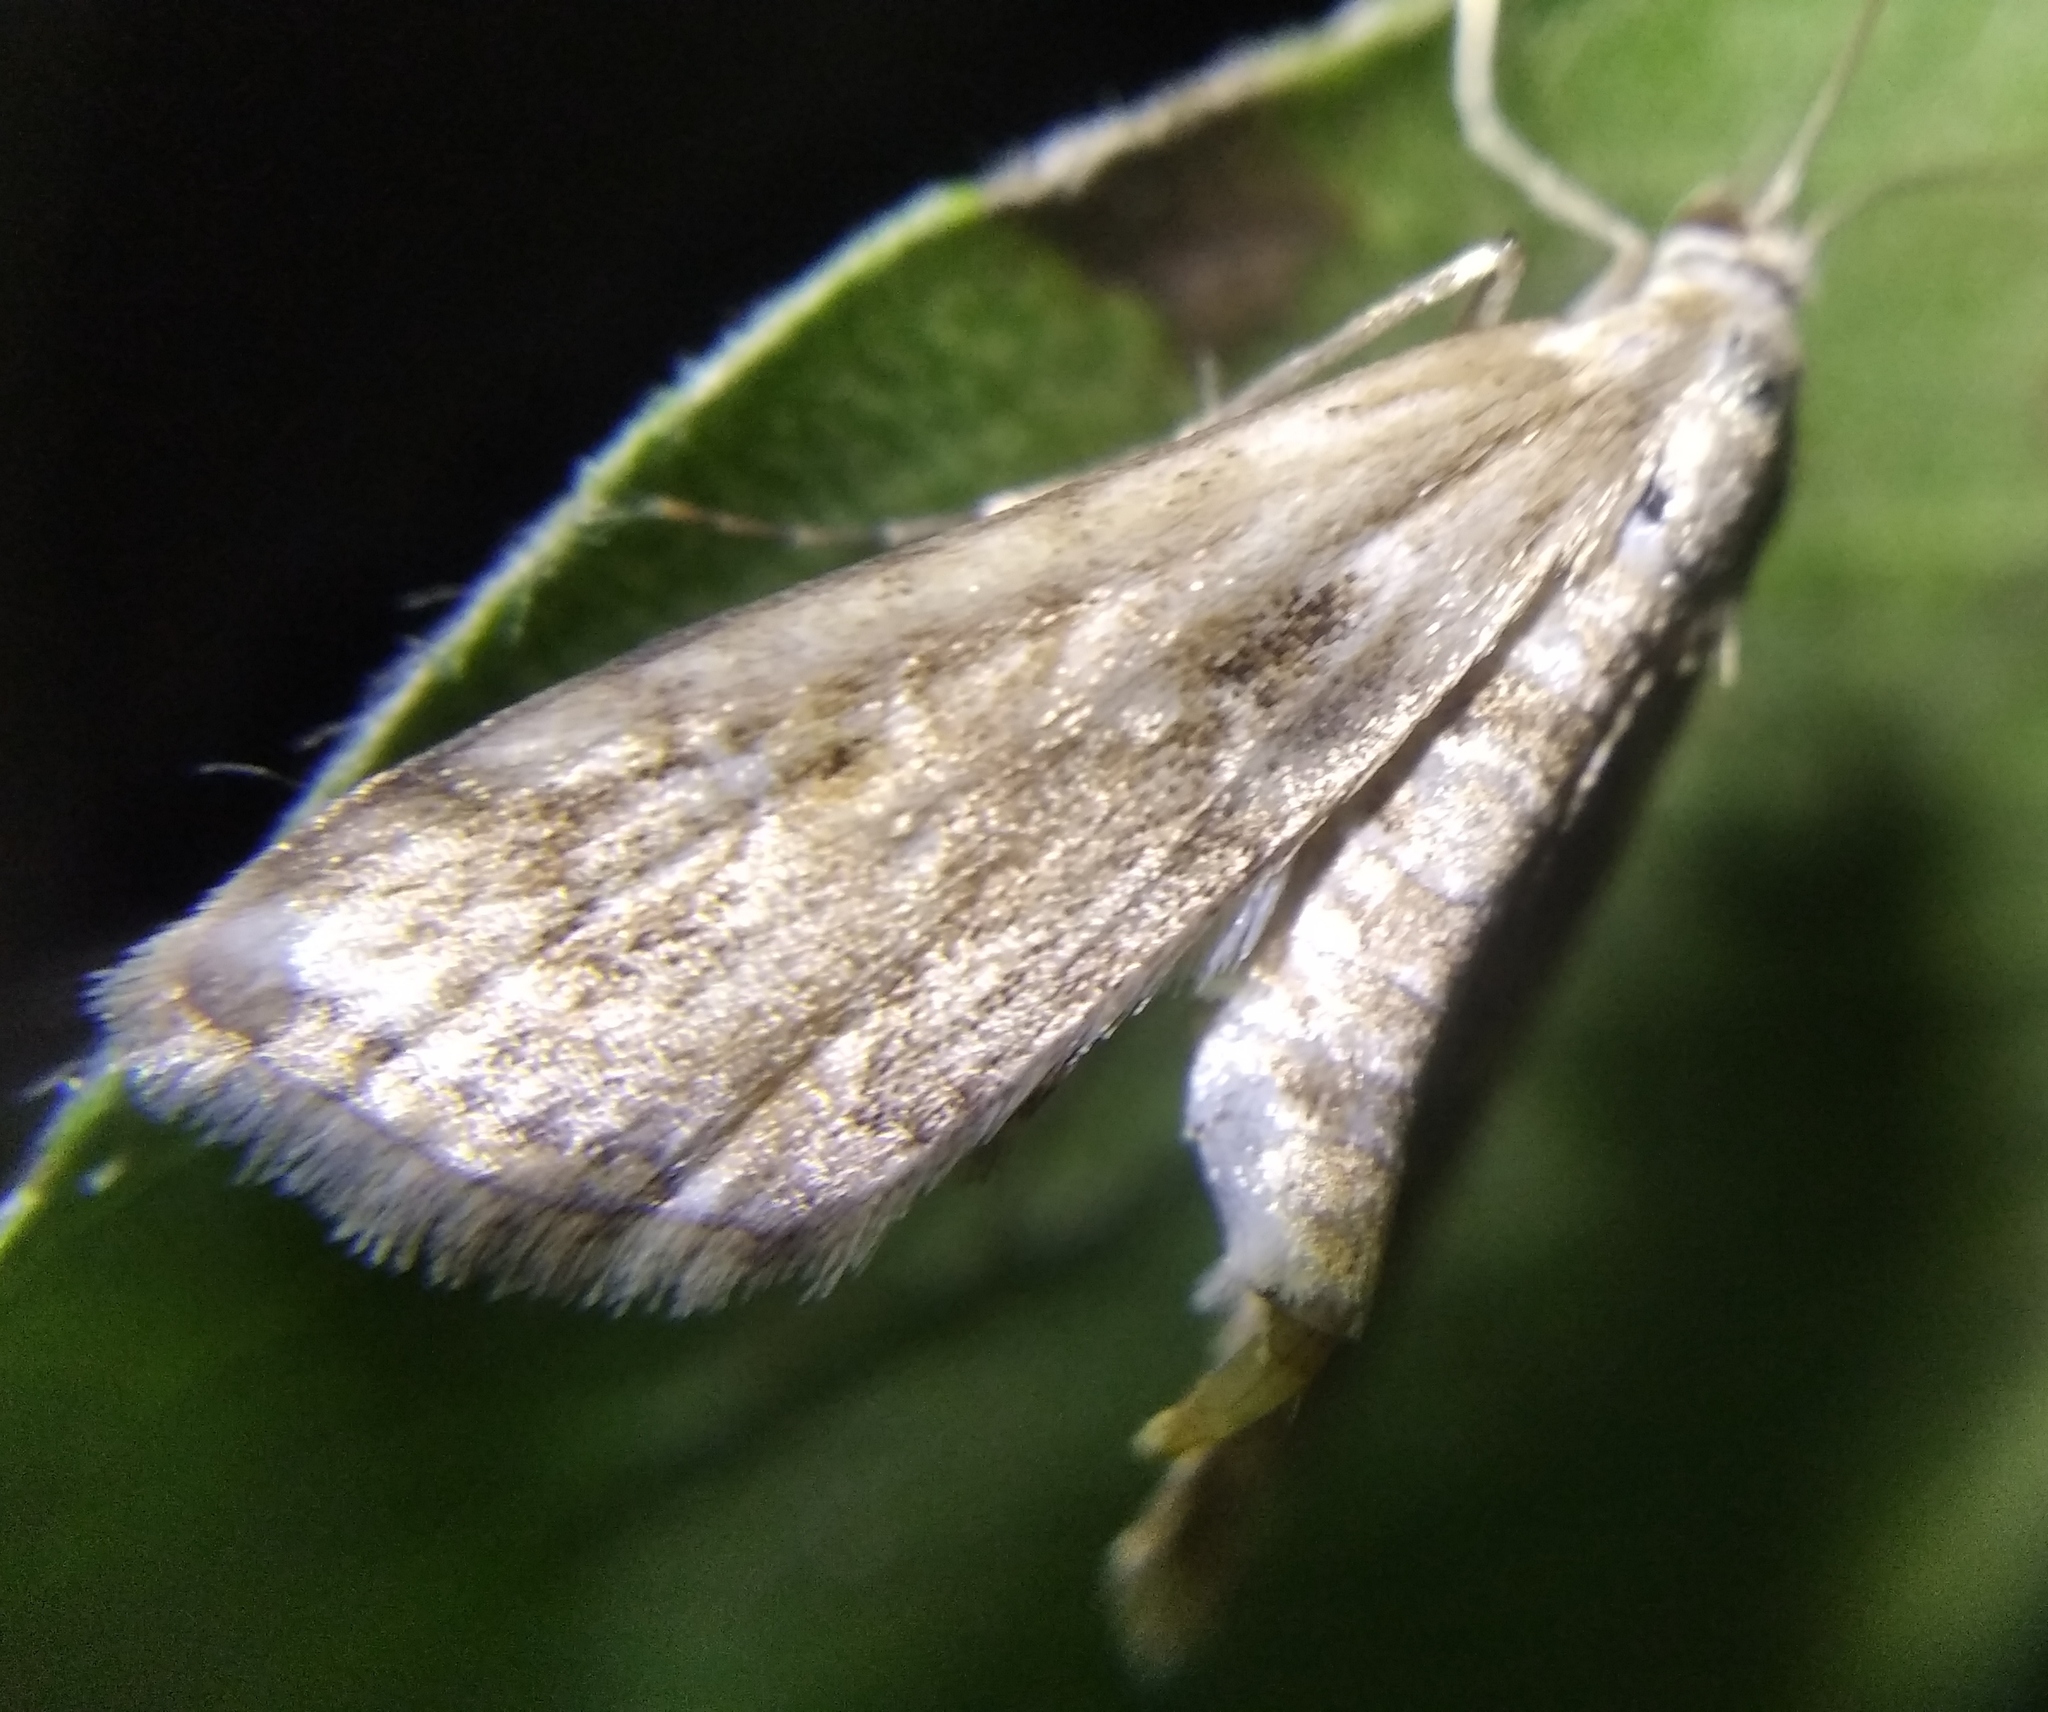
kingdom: Animalia
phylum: Arthropoda
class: Insecta
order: Lepidoptera
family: Crambidae
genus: Cataclysta
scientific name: Cataclysta lemnata
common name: Small china-mark
